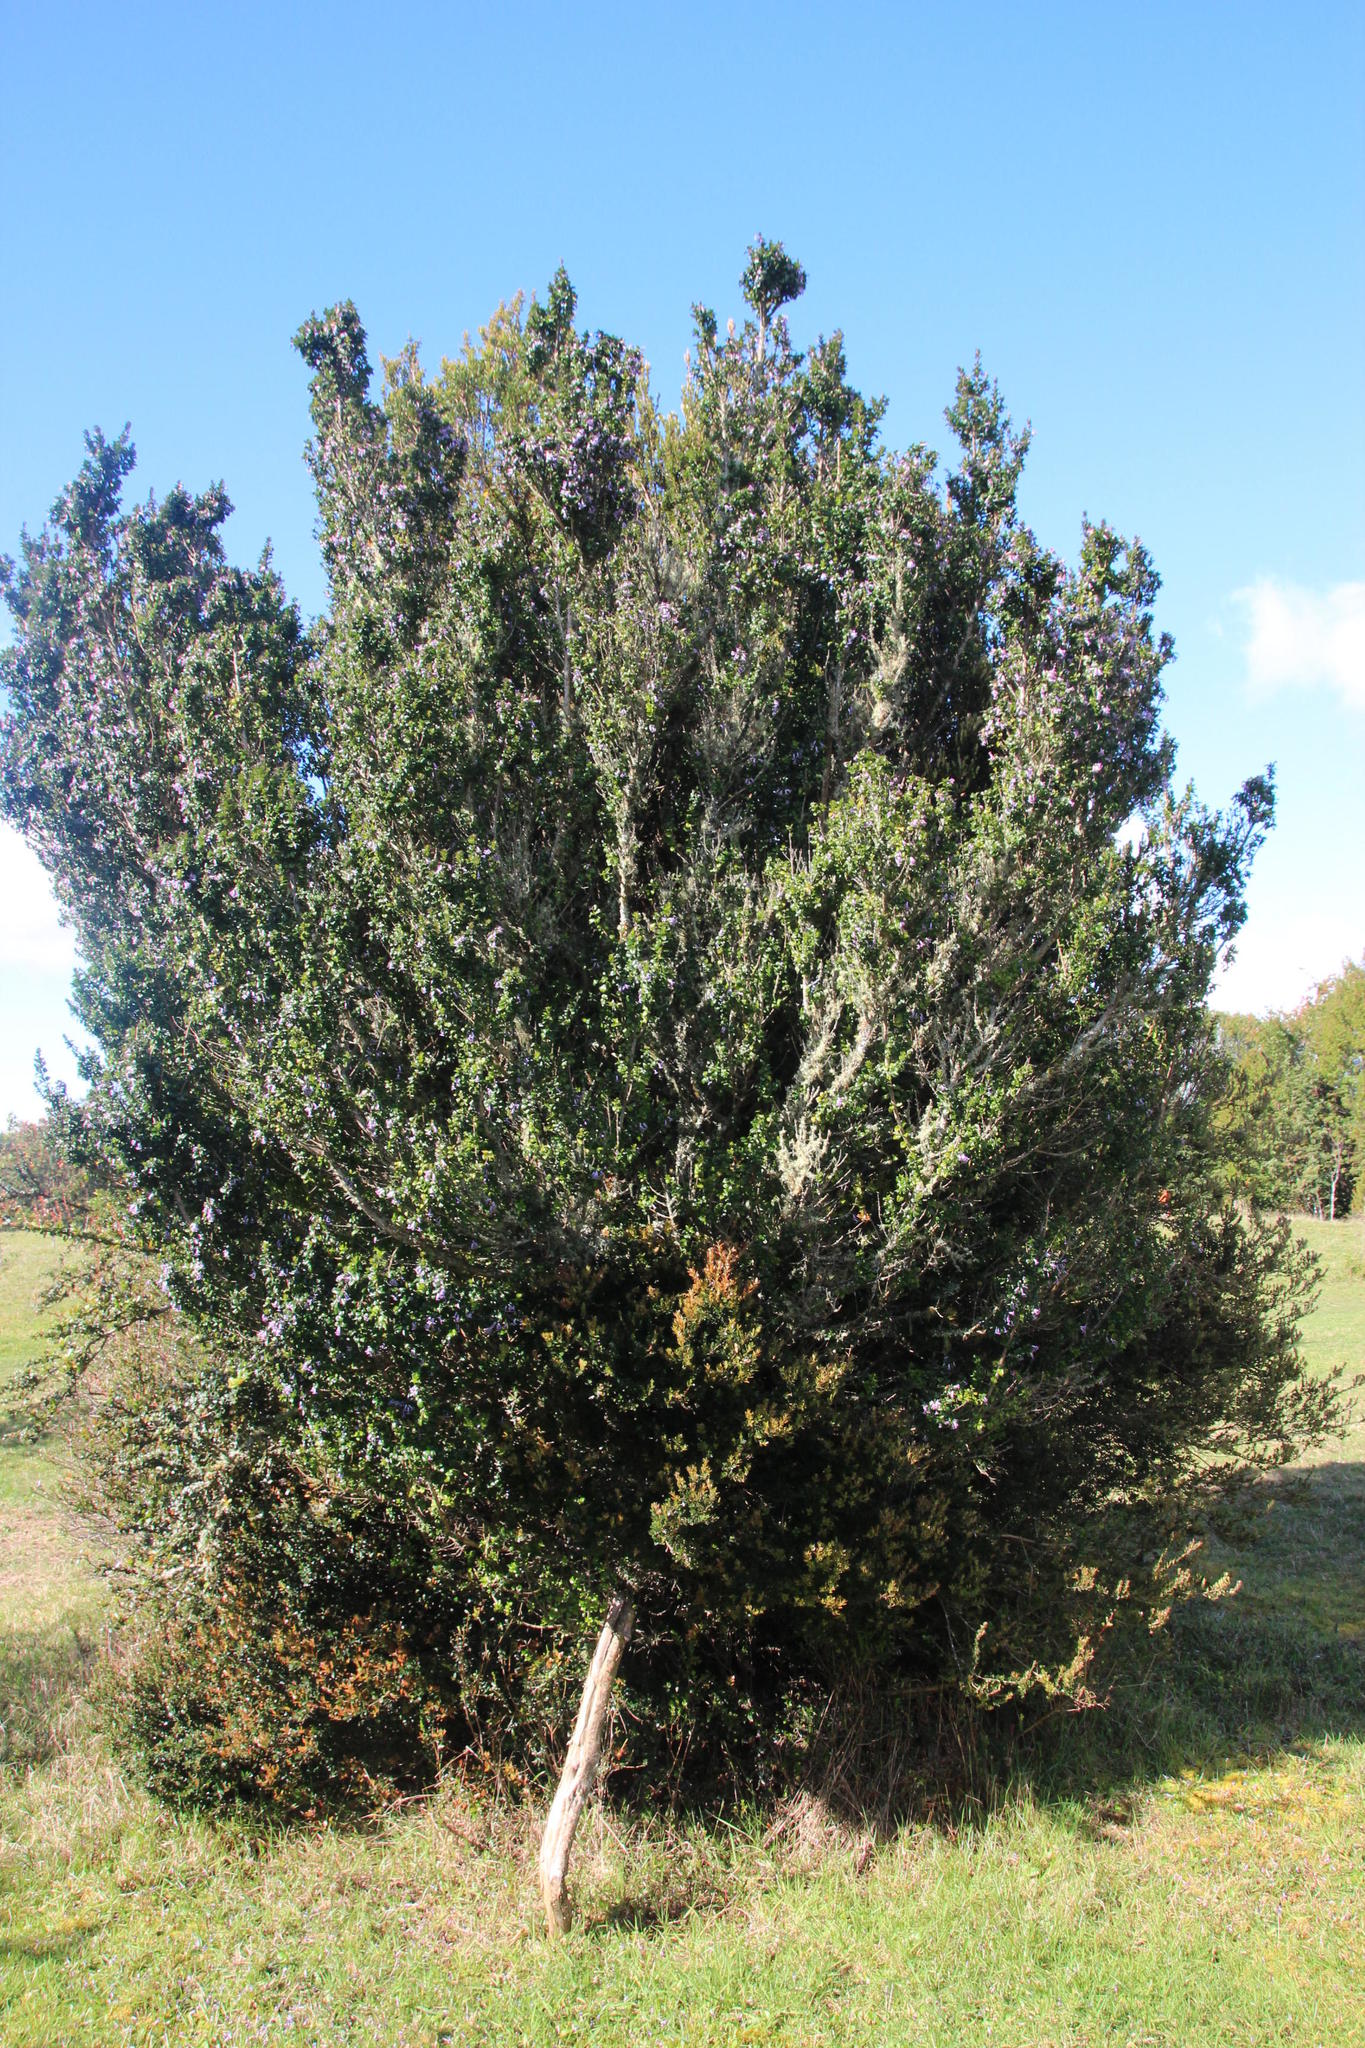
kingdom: Plantae
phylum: Tracheophyta
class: Magnoliopsida
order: Lamiales
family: Verbenaceae
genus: Rhaphithamnus
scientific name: Rhaphithamnus spinosus
